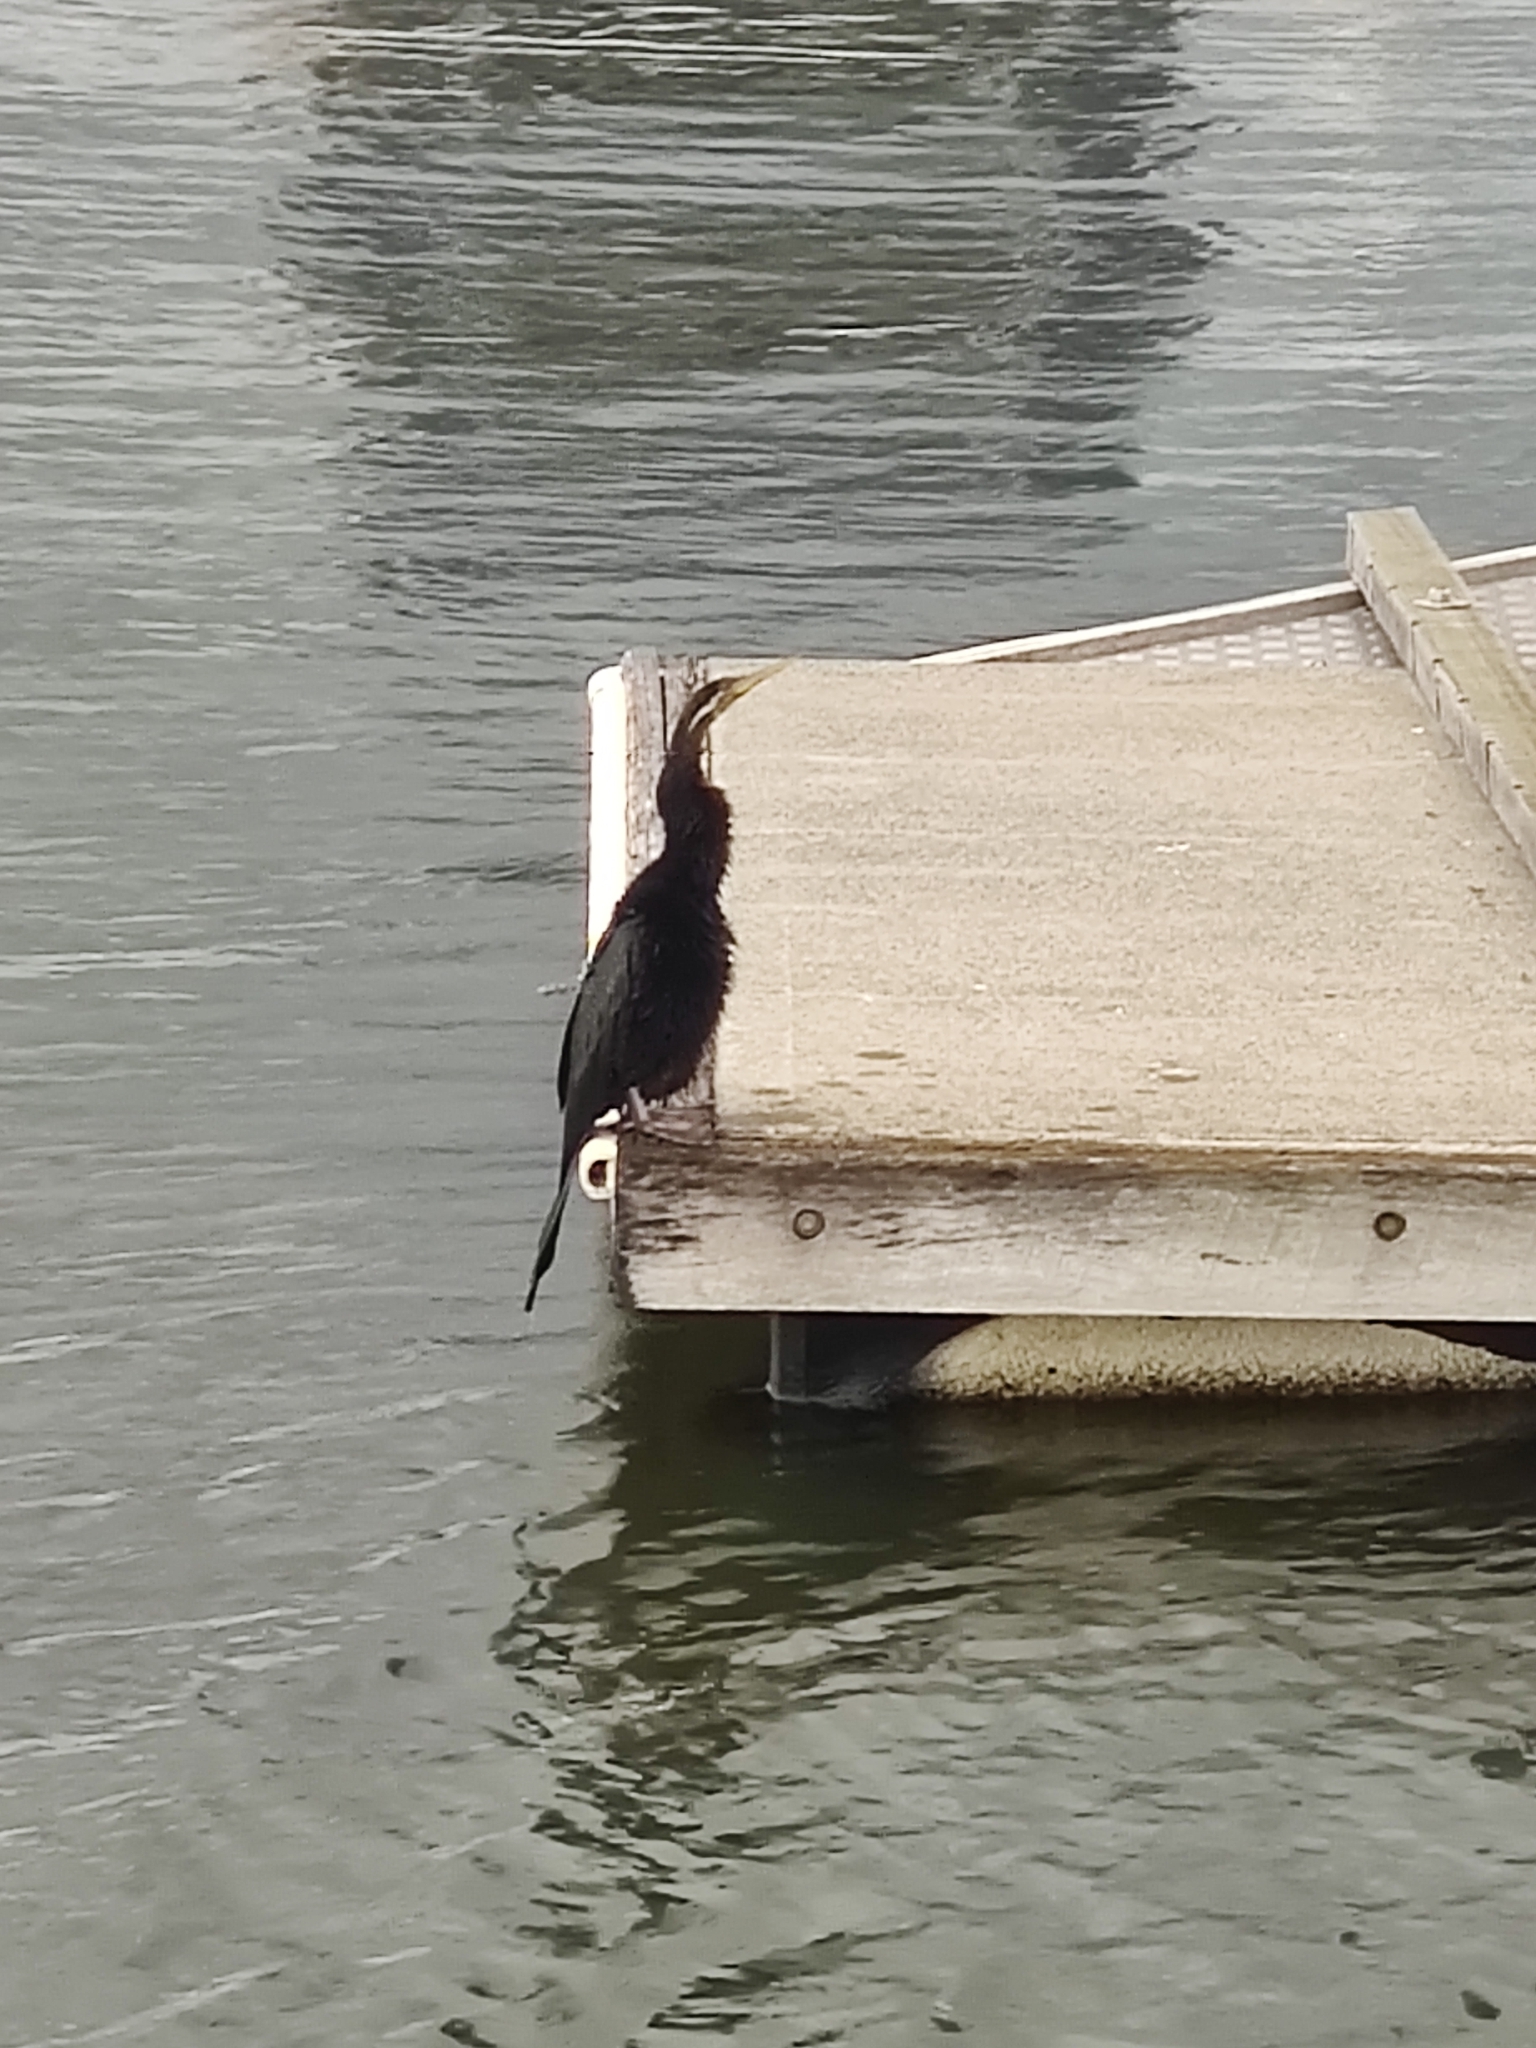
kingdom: Animalia
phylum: Chordata
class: Aves
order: Suliformes
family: Anhingidae
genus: Anhinga
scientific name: Anhinga novaehollandiae
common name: Australasian darter
